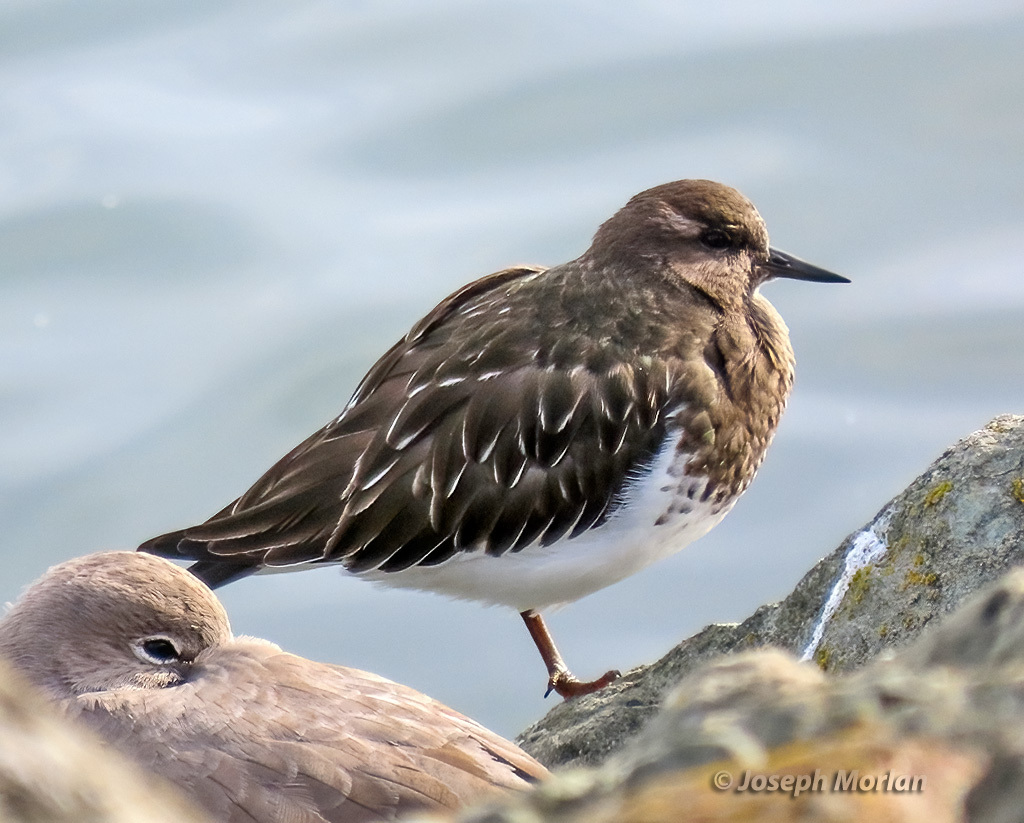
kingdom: Animalia
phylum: Chordata
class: Aves
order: Charadriiformes
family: Scolopacidae
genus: Arenaria
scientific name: Arenaria melanocephala
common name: Black turnstone
